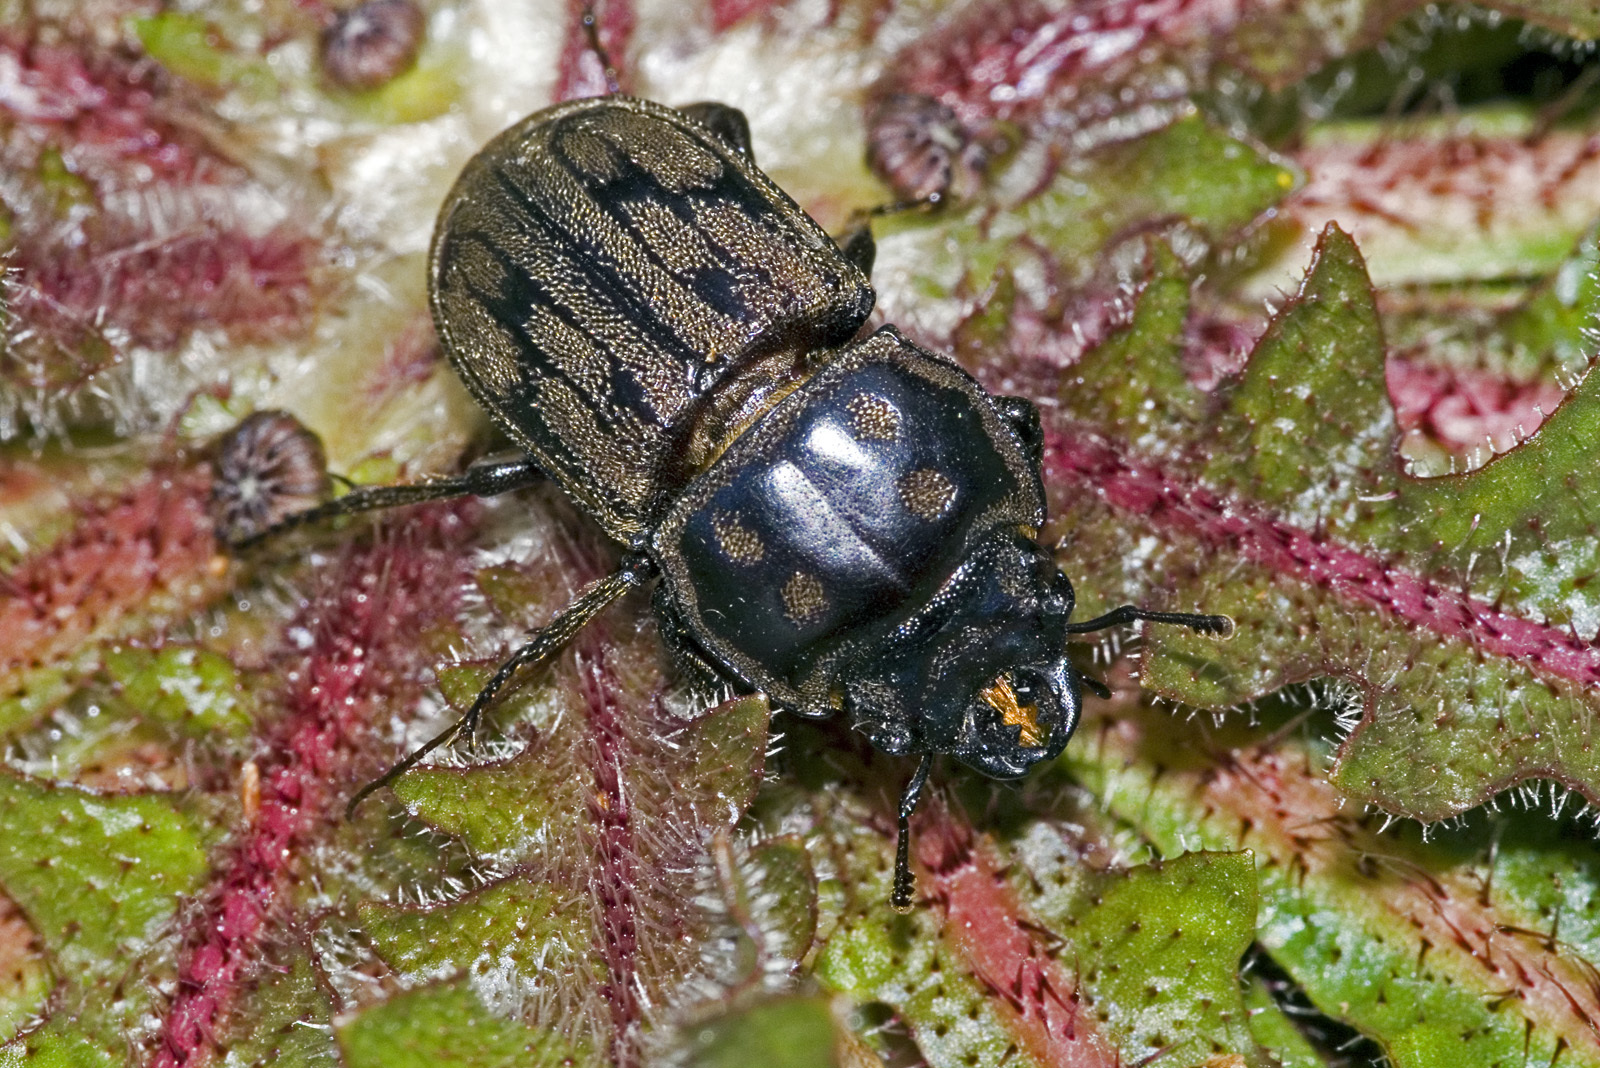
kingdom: Animalia
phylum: Arthropoda
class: Insecta
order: Coleoptera
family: Lucanidae
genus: Paralissotes
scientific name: Paralissotes reticulatus
